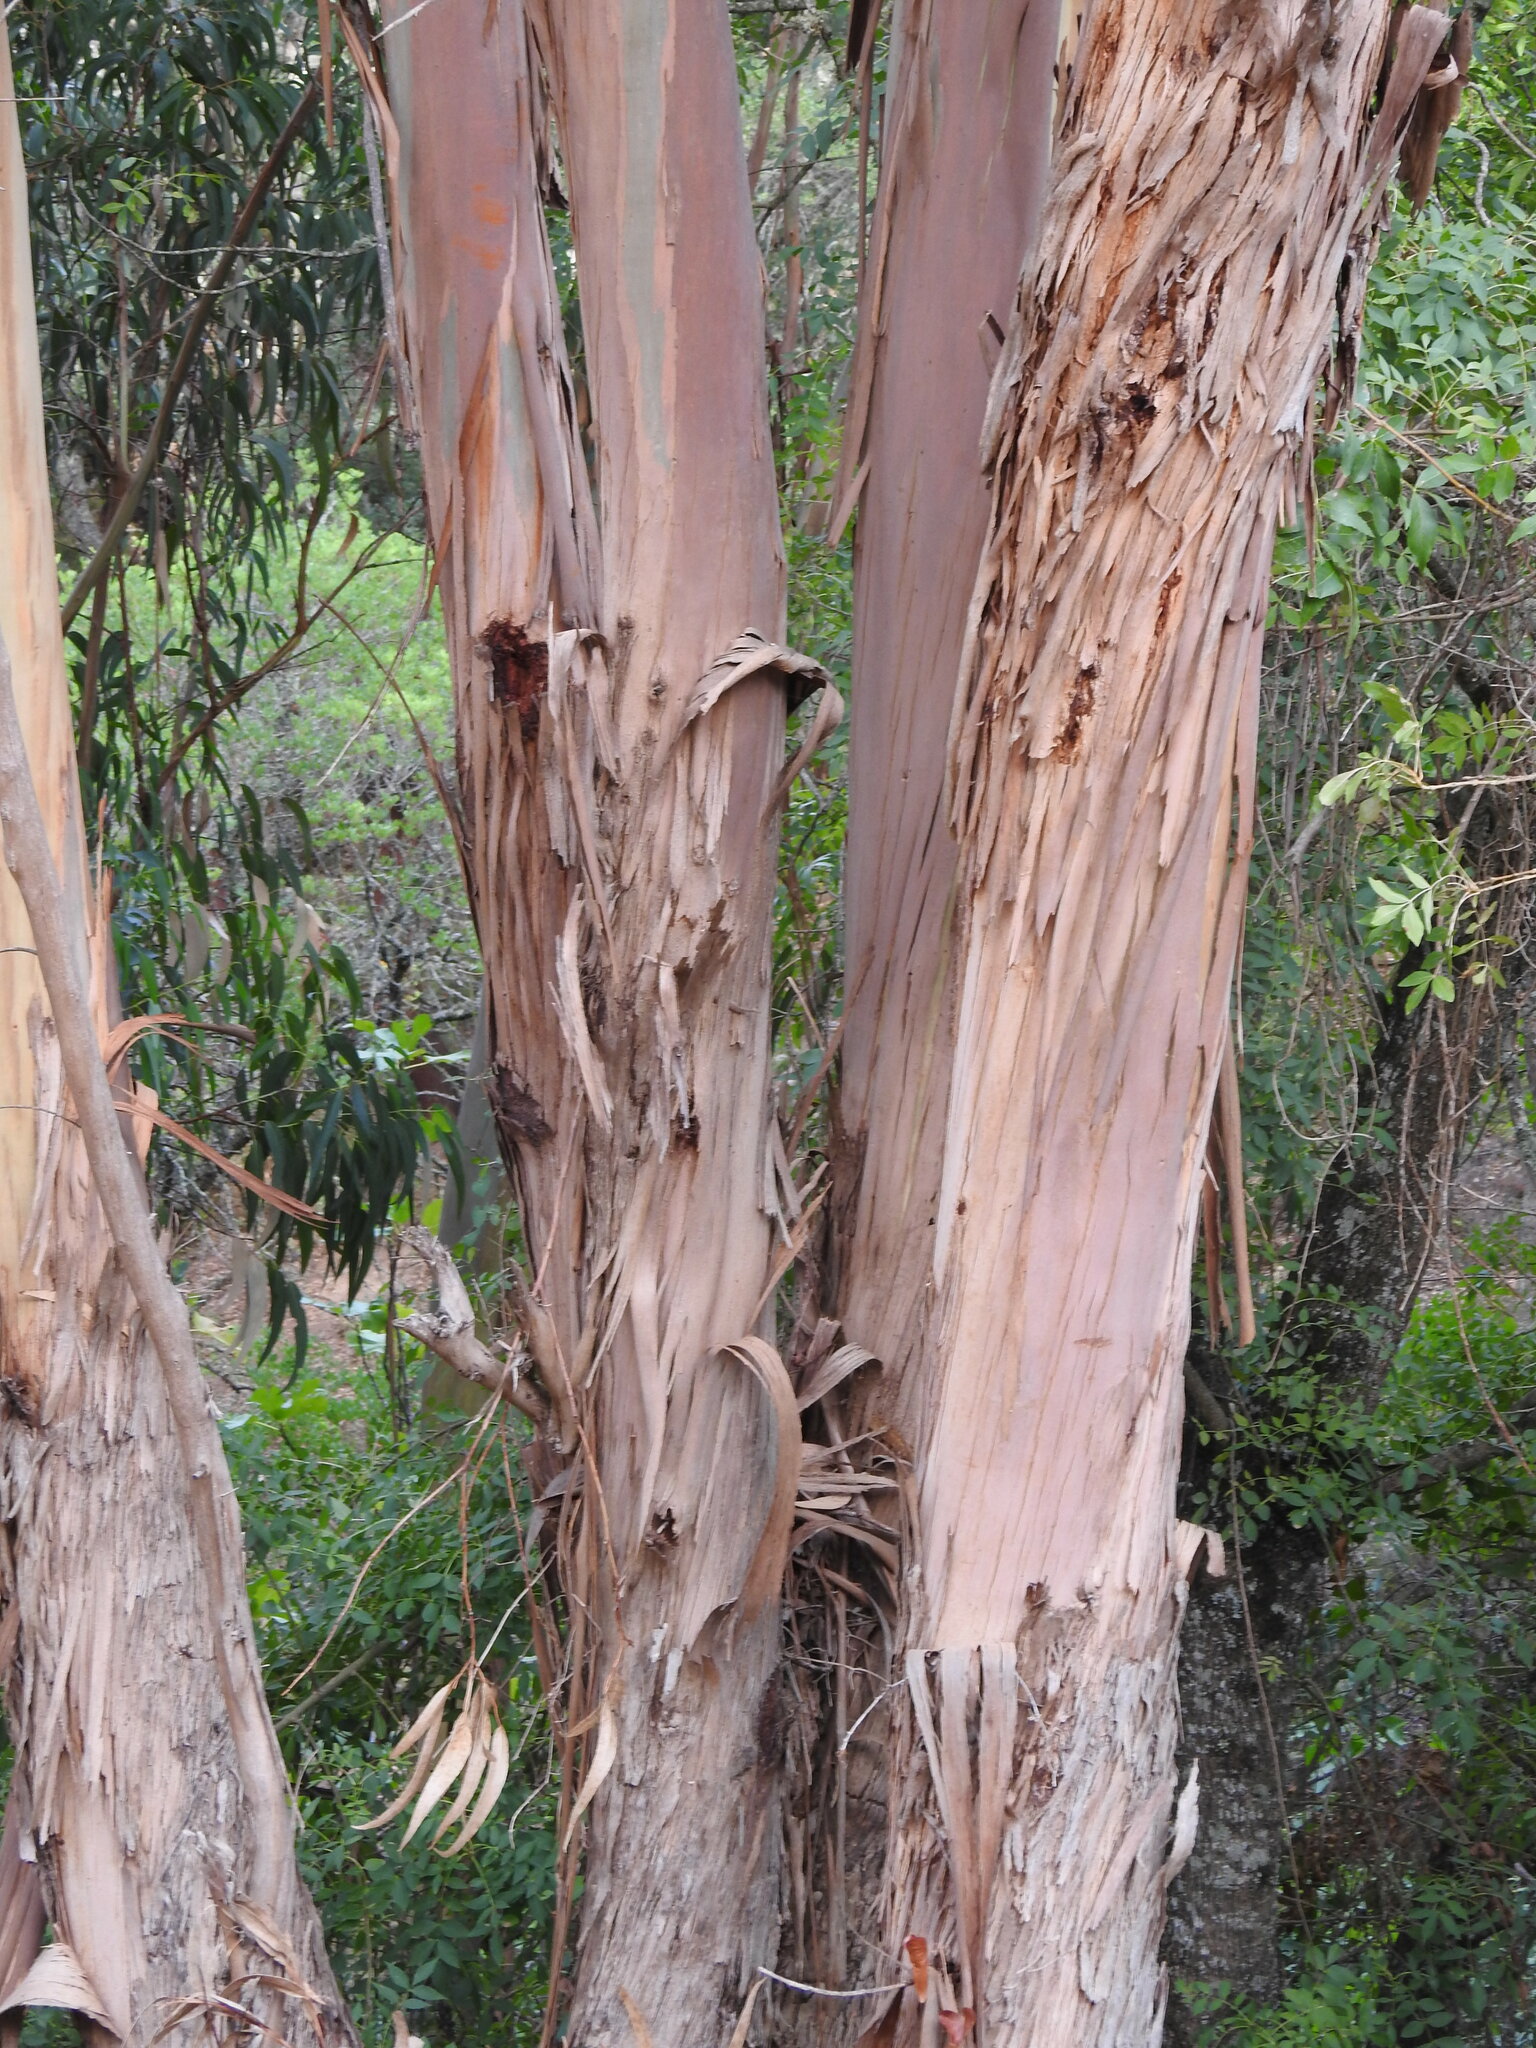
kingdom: Plantae
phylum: Tracheophyta
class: Magnoliopsida
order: Myrtales
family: Myrtaceae
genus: Eucalyptus
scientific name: Eucalyptus globulus
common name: Southern blue-gum
